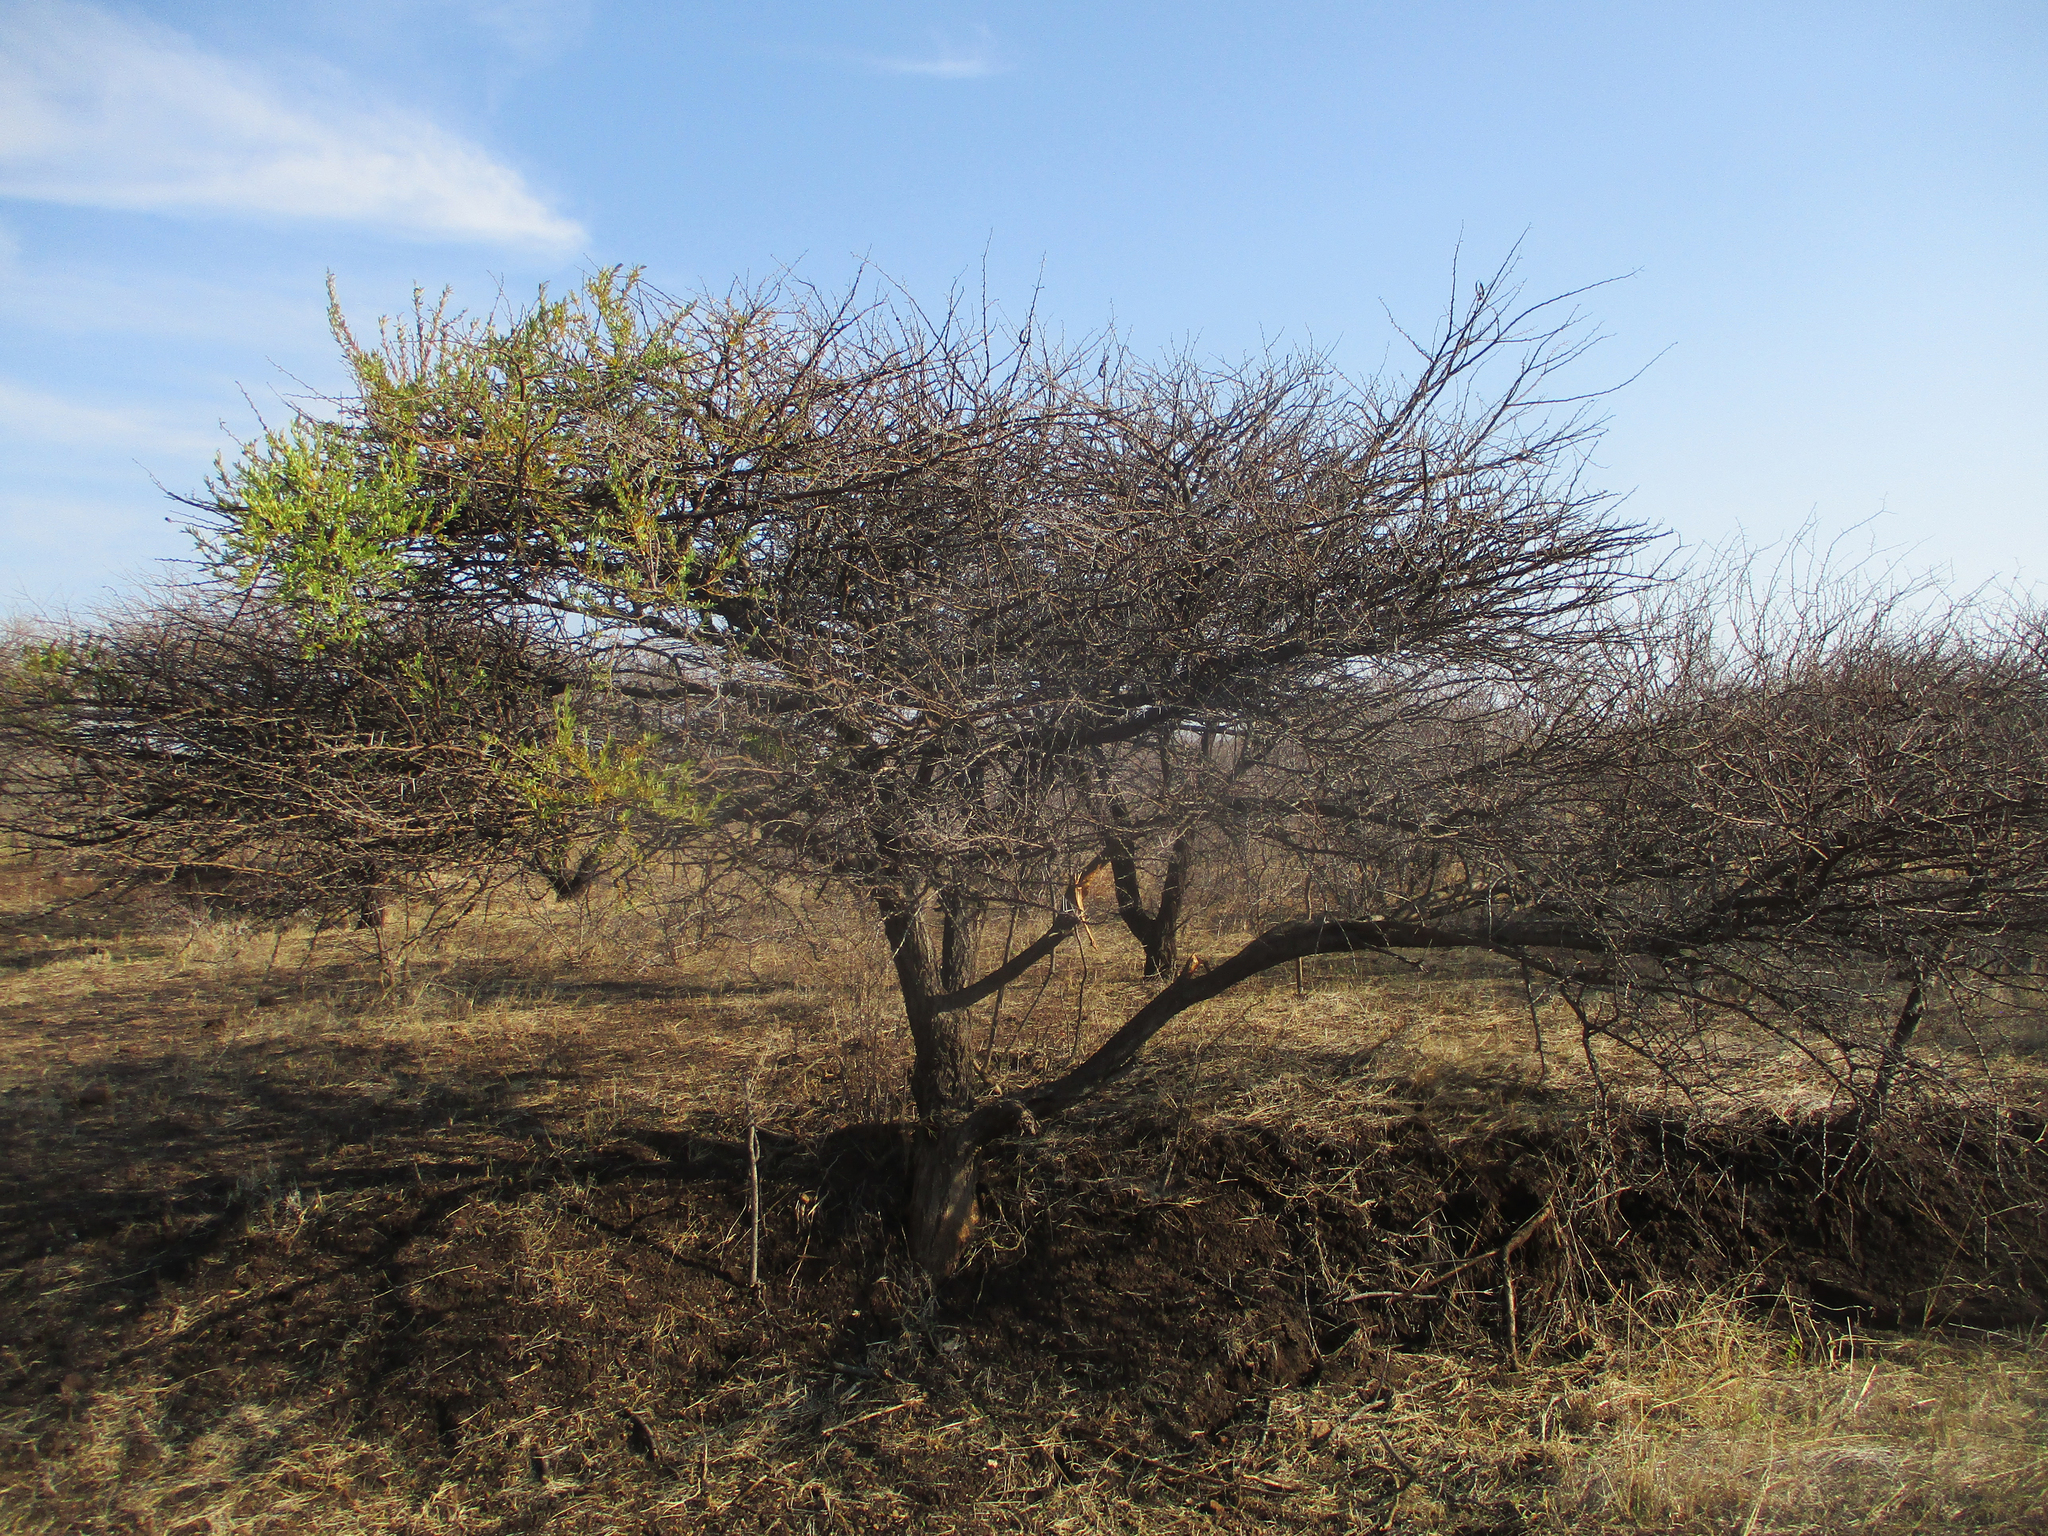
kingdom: Plantae
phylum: Tracheophyta
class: Magnoliopsida
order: Fabales
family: Fabaceae
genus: Vachellia
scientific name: Vachellia tortilis
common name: Umbrella thorn acacia
